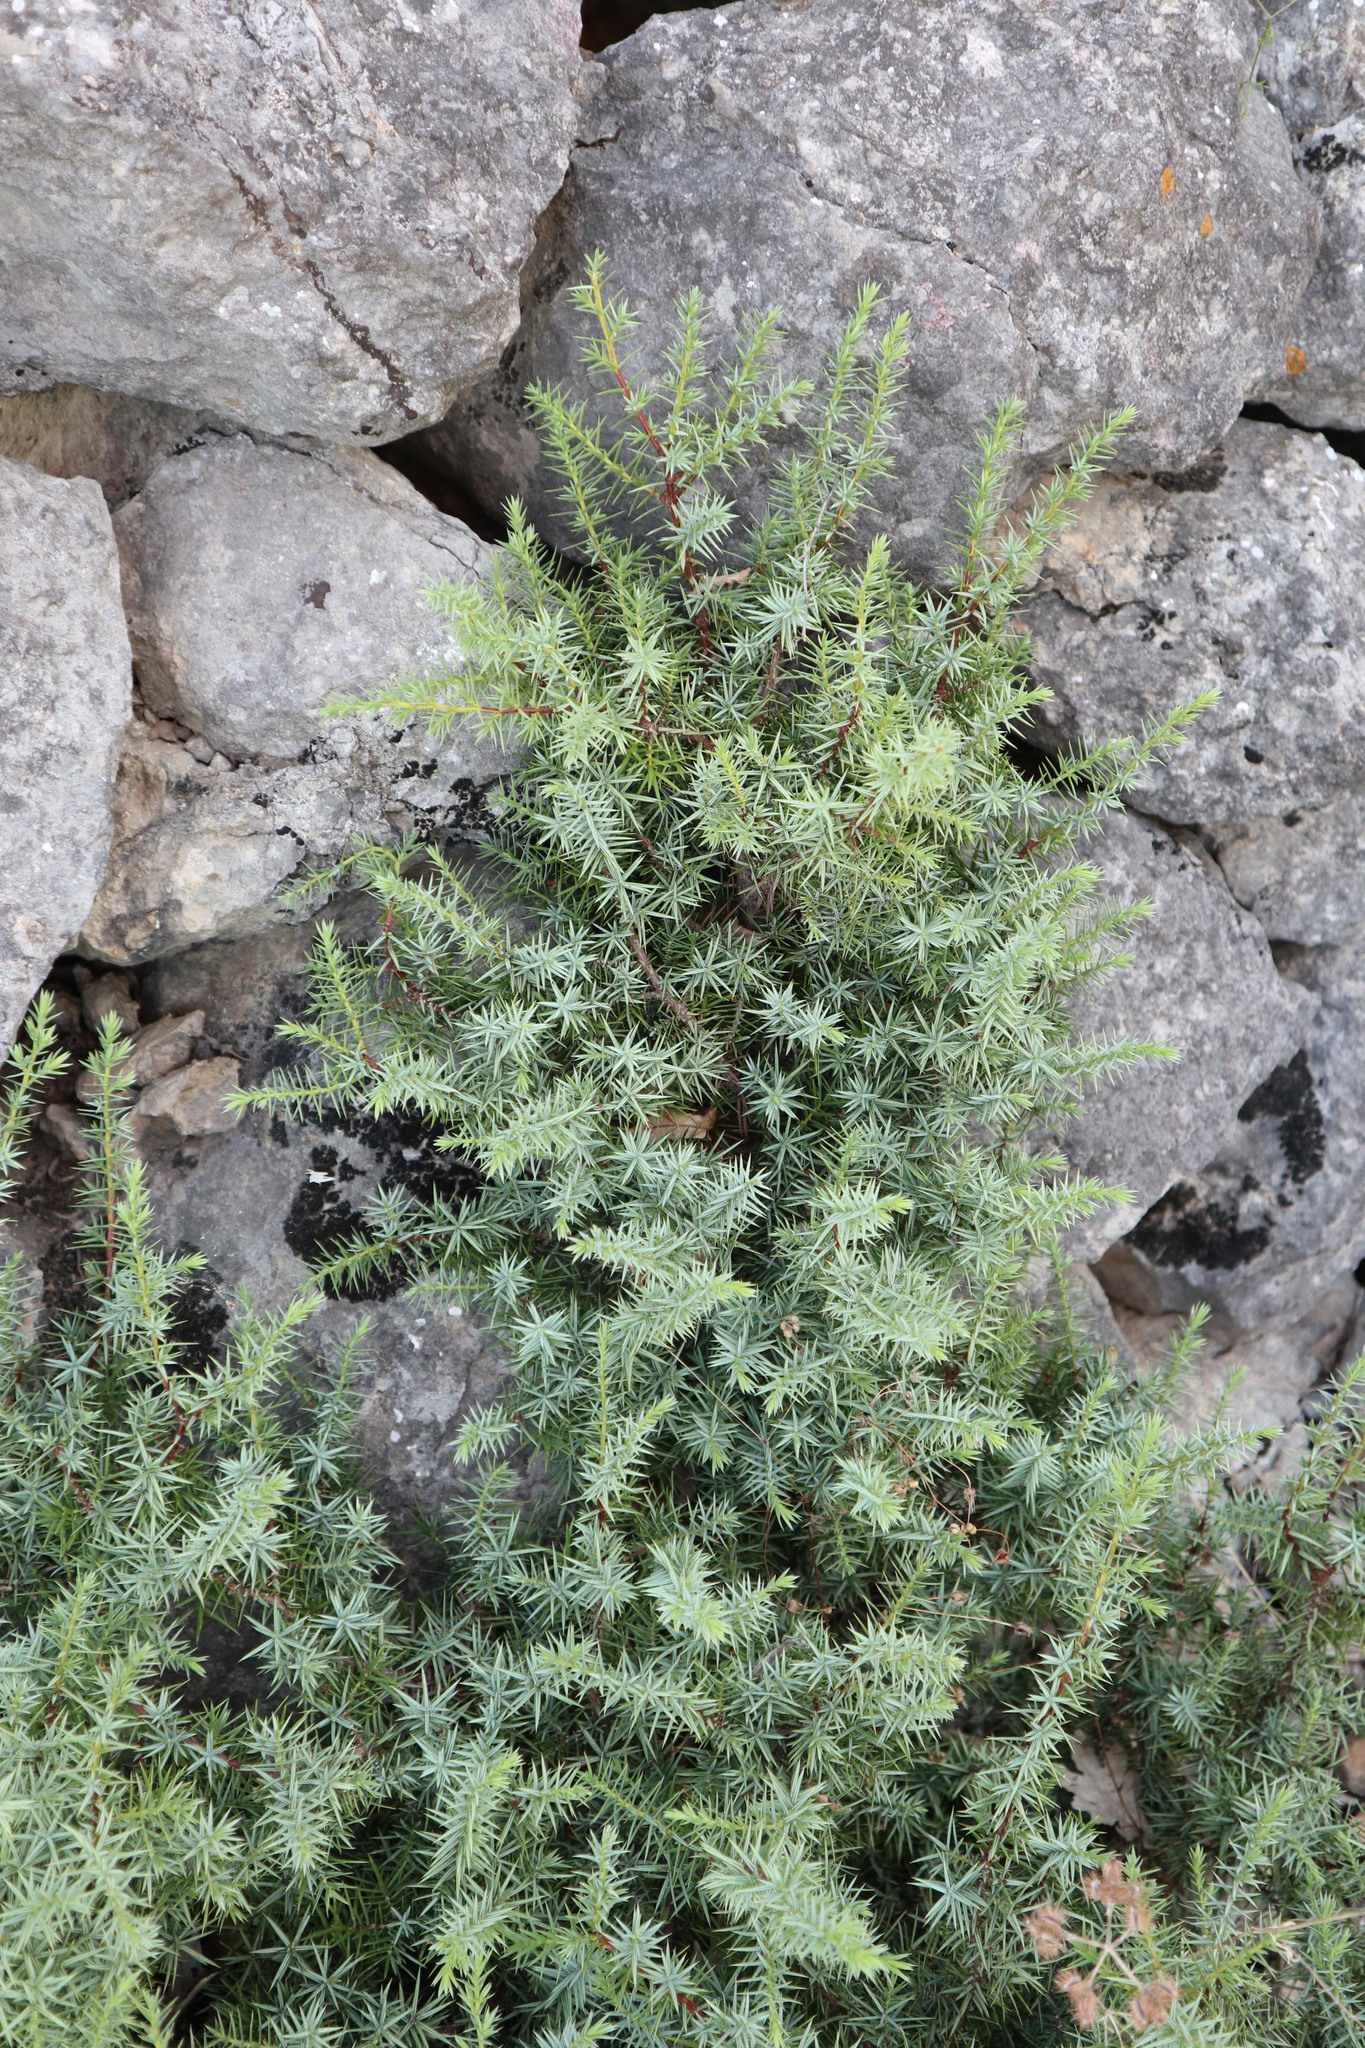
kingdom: Plantae
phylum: Tracheophyta
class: Pinopsida
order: Pinales
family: Cupressaceae
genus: Juniperus
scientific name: Juniperus oxycedrus
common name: Prickly juniper
